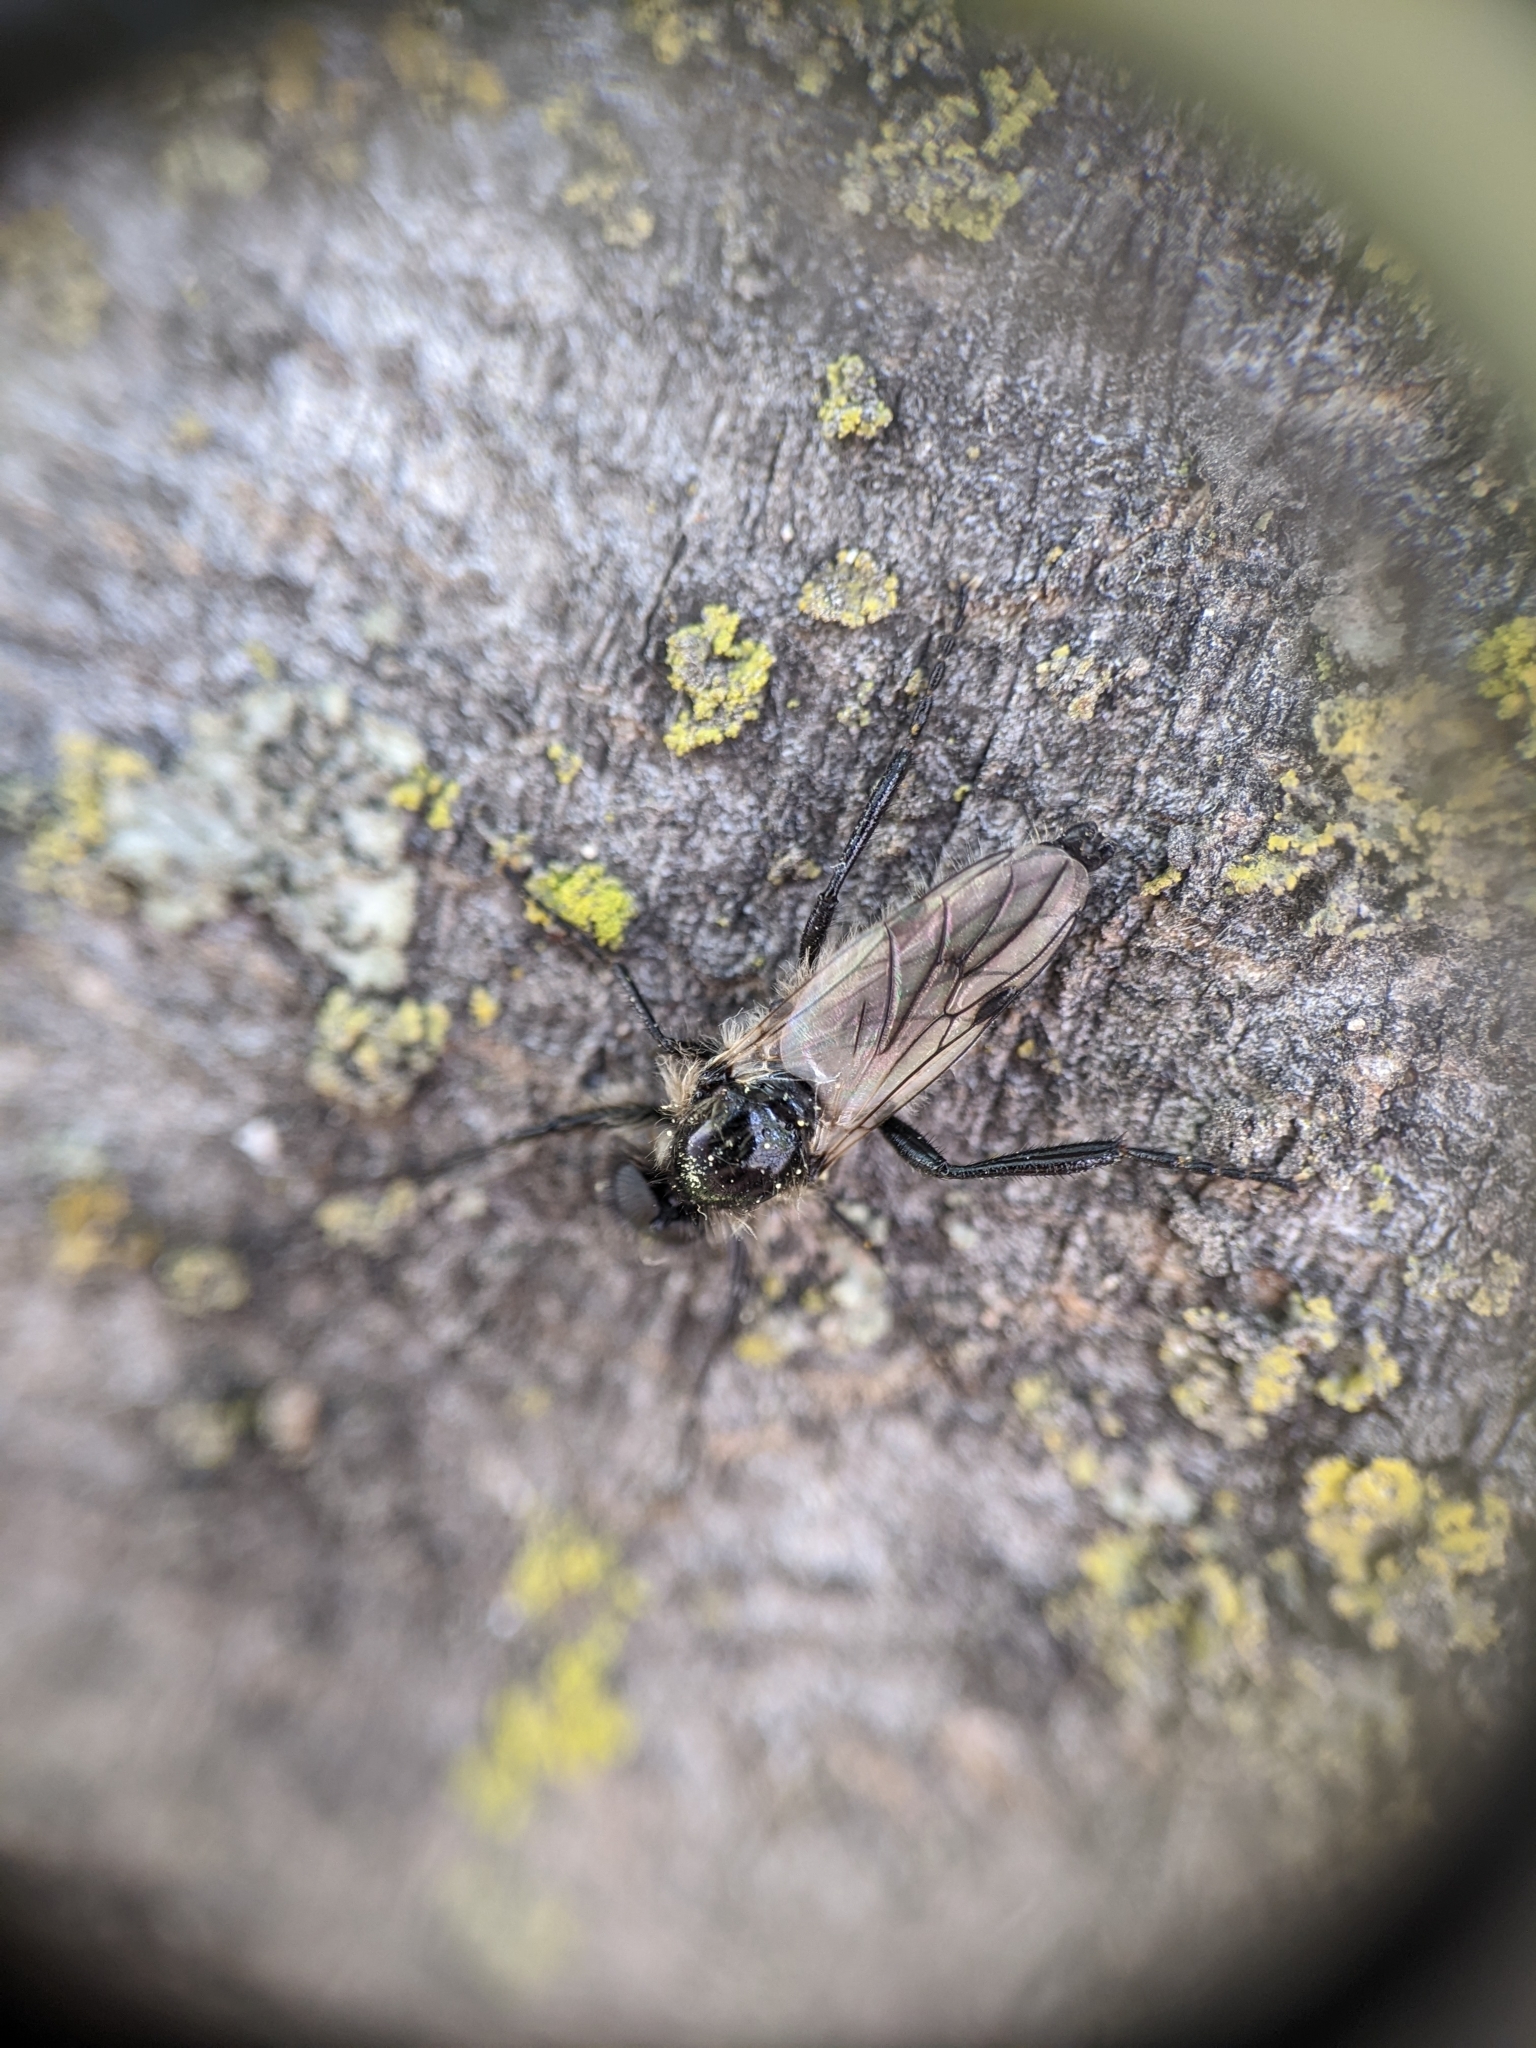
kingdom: Animalia
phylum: Arthropoda
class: Insecta
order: Diptera
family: Bibionidae
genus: Bibio
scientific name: Bibio albipennis
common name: White-winged march fly
